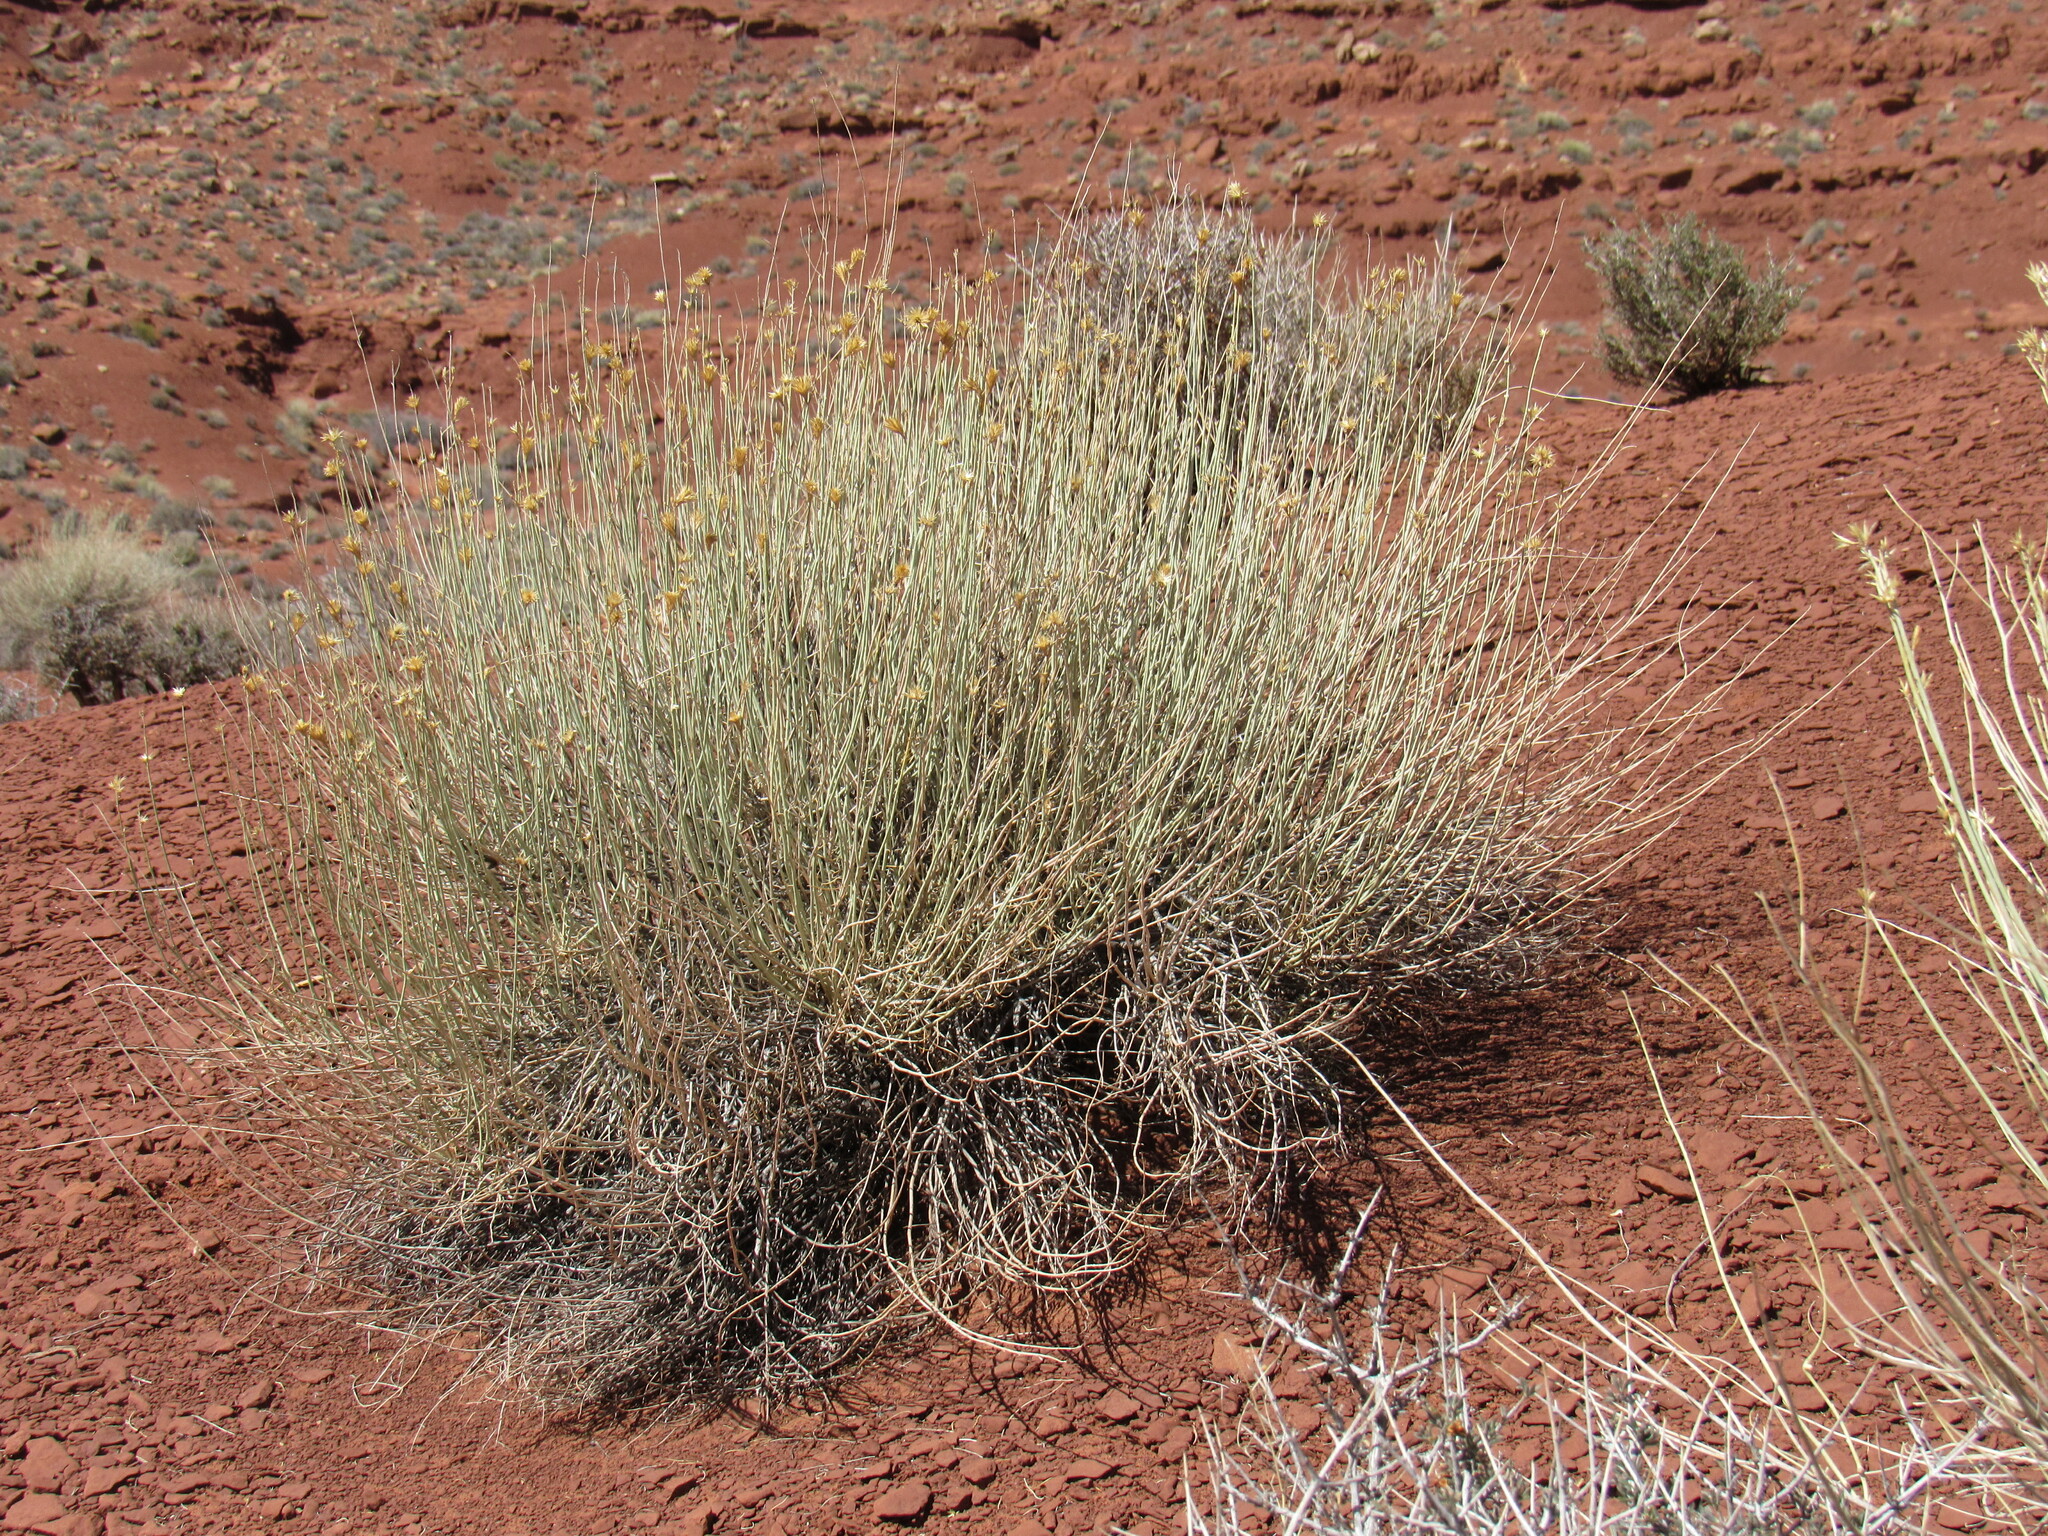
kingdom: Plantae
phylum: Tracheophyta
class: Magnoliopsida
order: Asterales
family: Asteraceae
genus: Ericameria
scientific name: Ericameria nauseosa
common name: Rubber rabbitbrush
